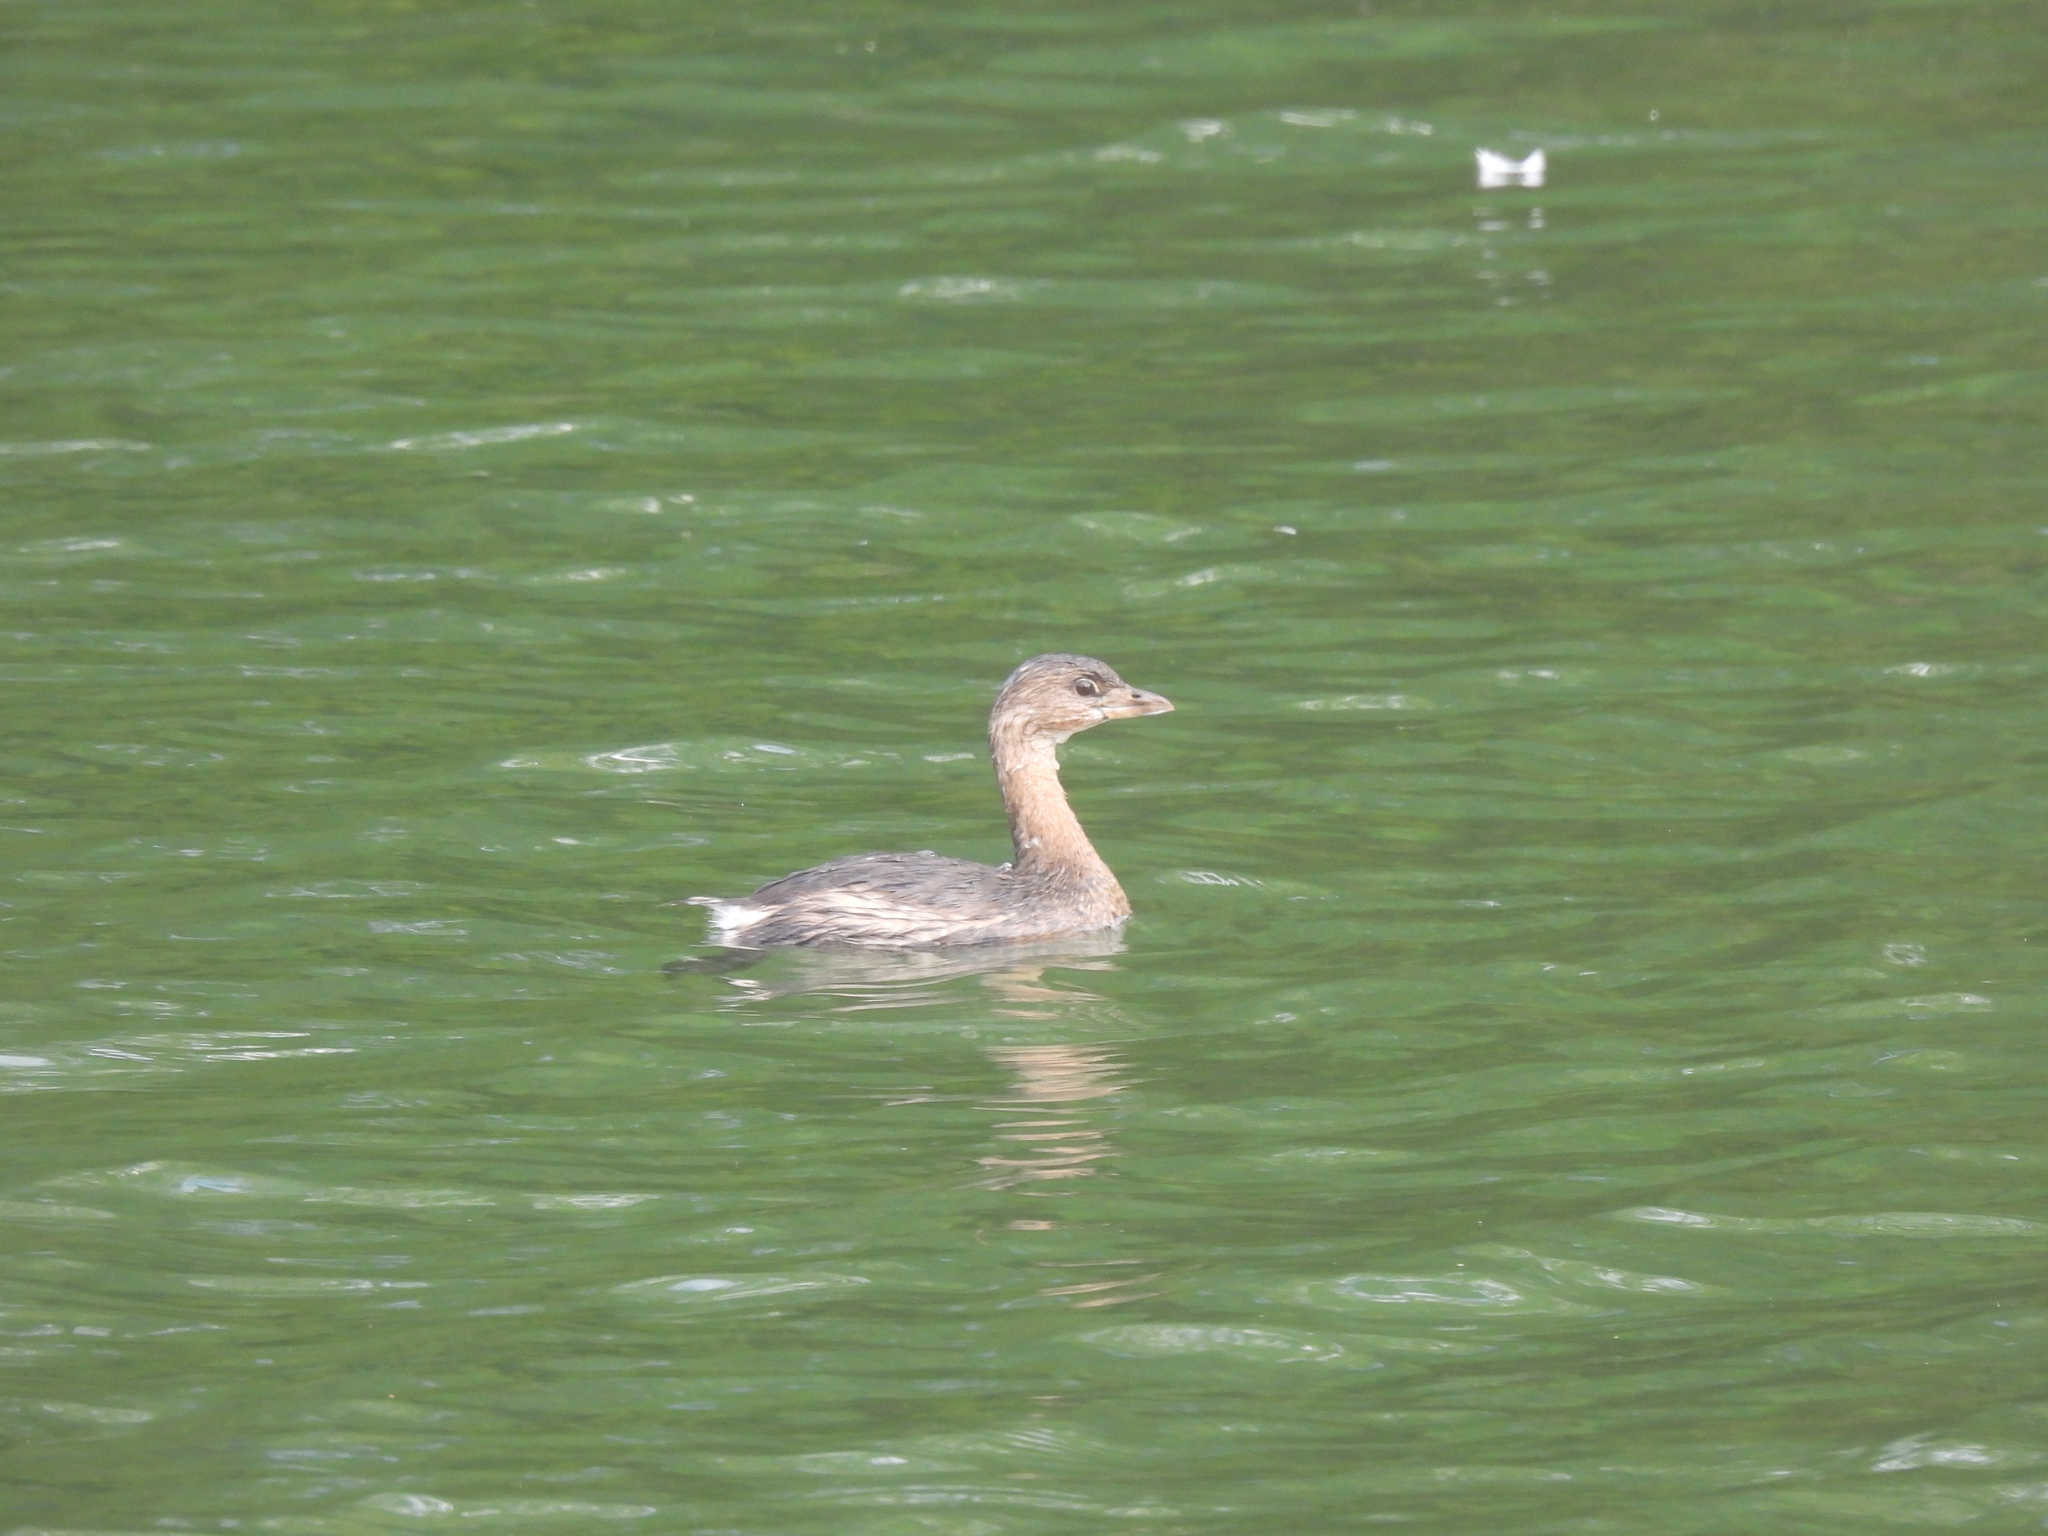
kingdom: Animalia
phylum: Chordata
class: Aves
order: Podicipediformes
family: Podicipedidae
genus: Podilymbus
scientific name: Podilymbus podiceps
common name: Pied-billed grebe
